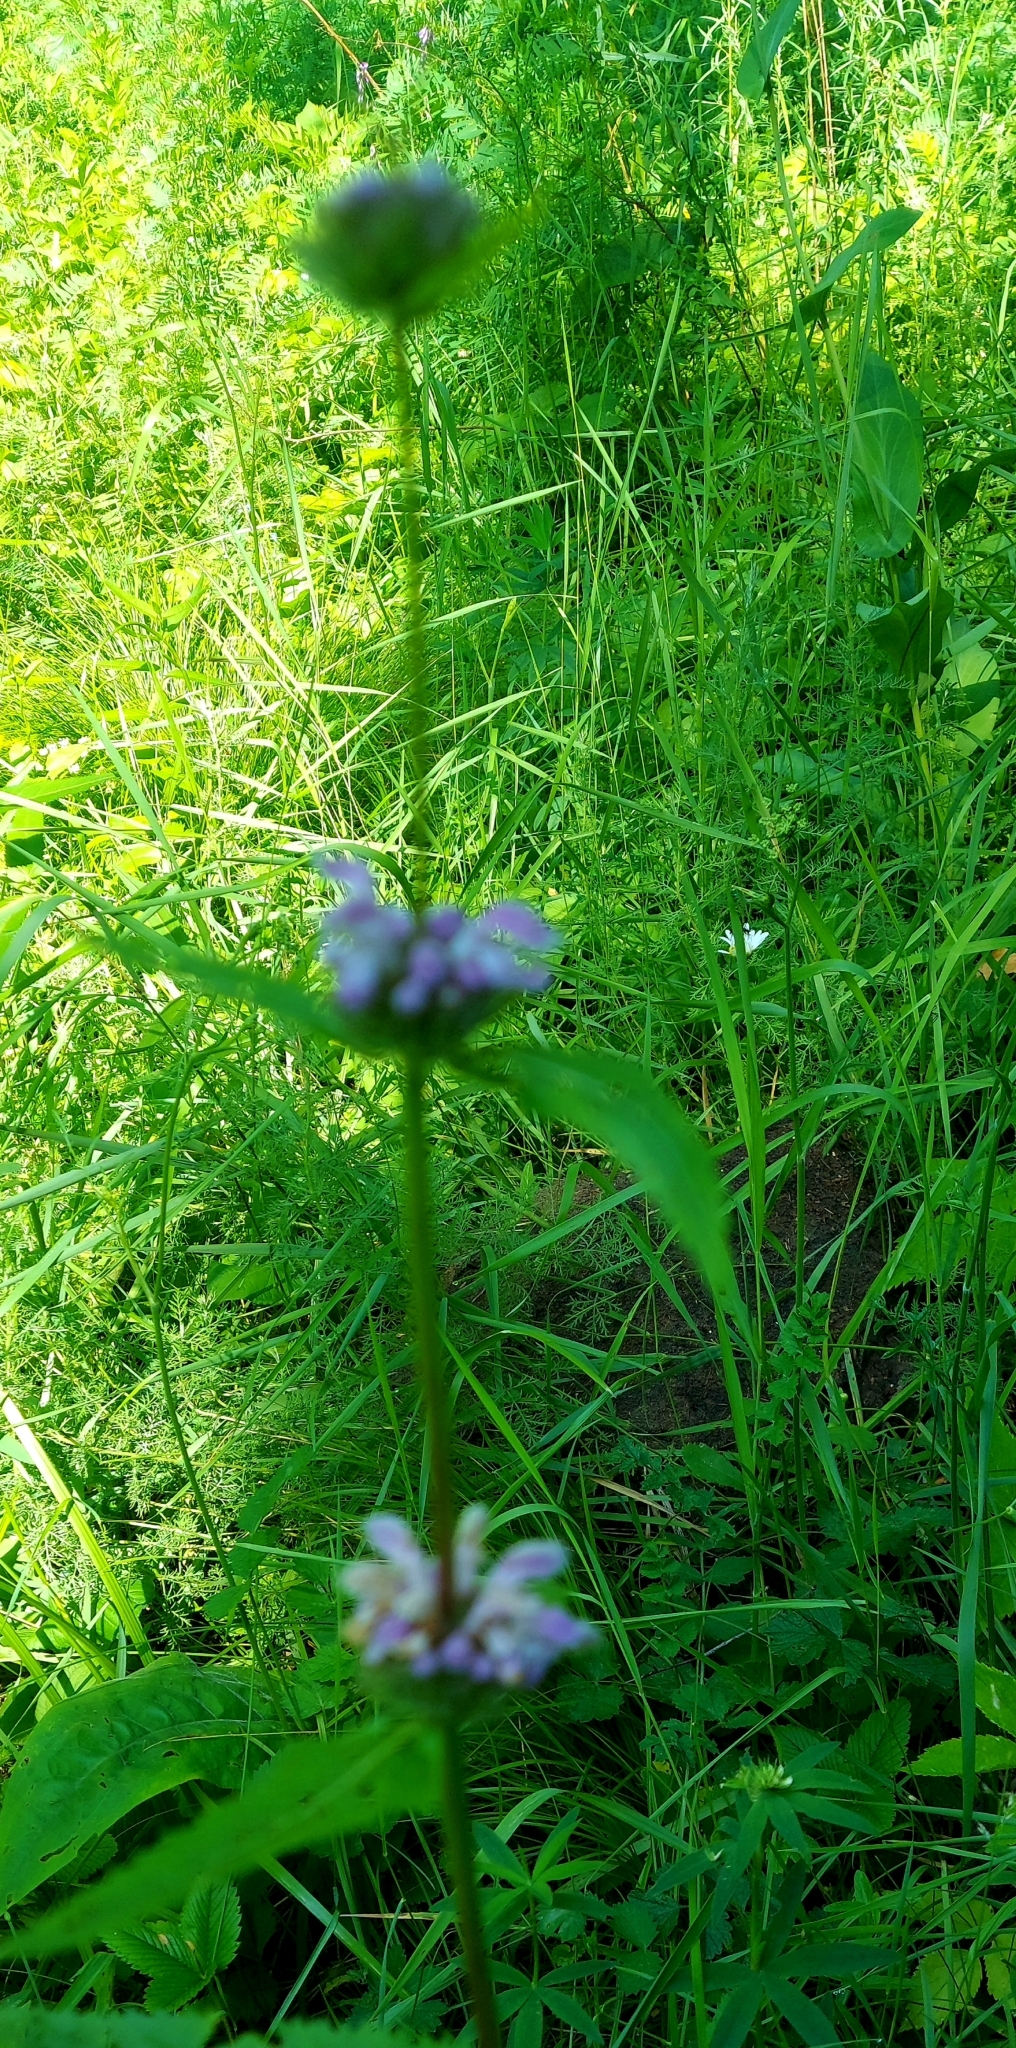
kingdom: Plantae
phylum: Tracheophyta
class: Magnoliopsida
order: Lamiales
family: Lamiaceae
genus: Phlomoides
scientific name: Phlomoides tuberosa
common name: Tuberous jerusalem sage
